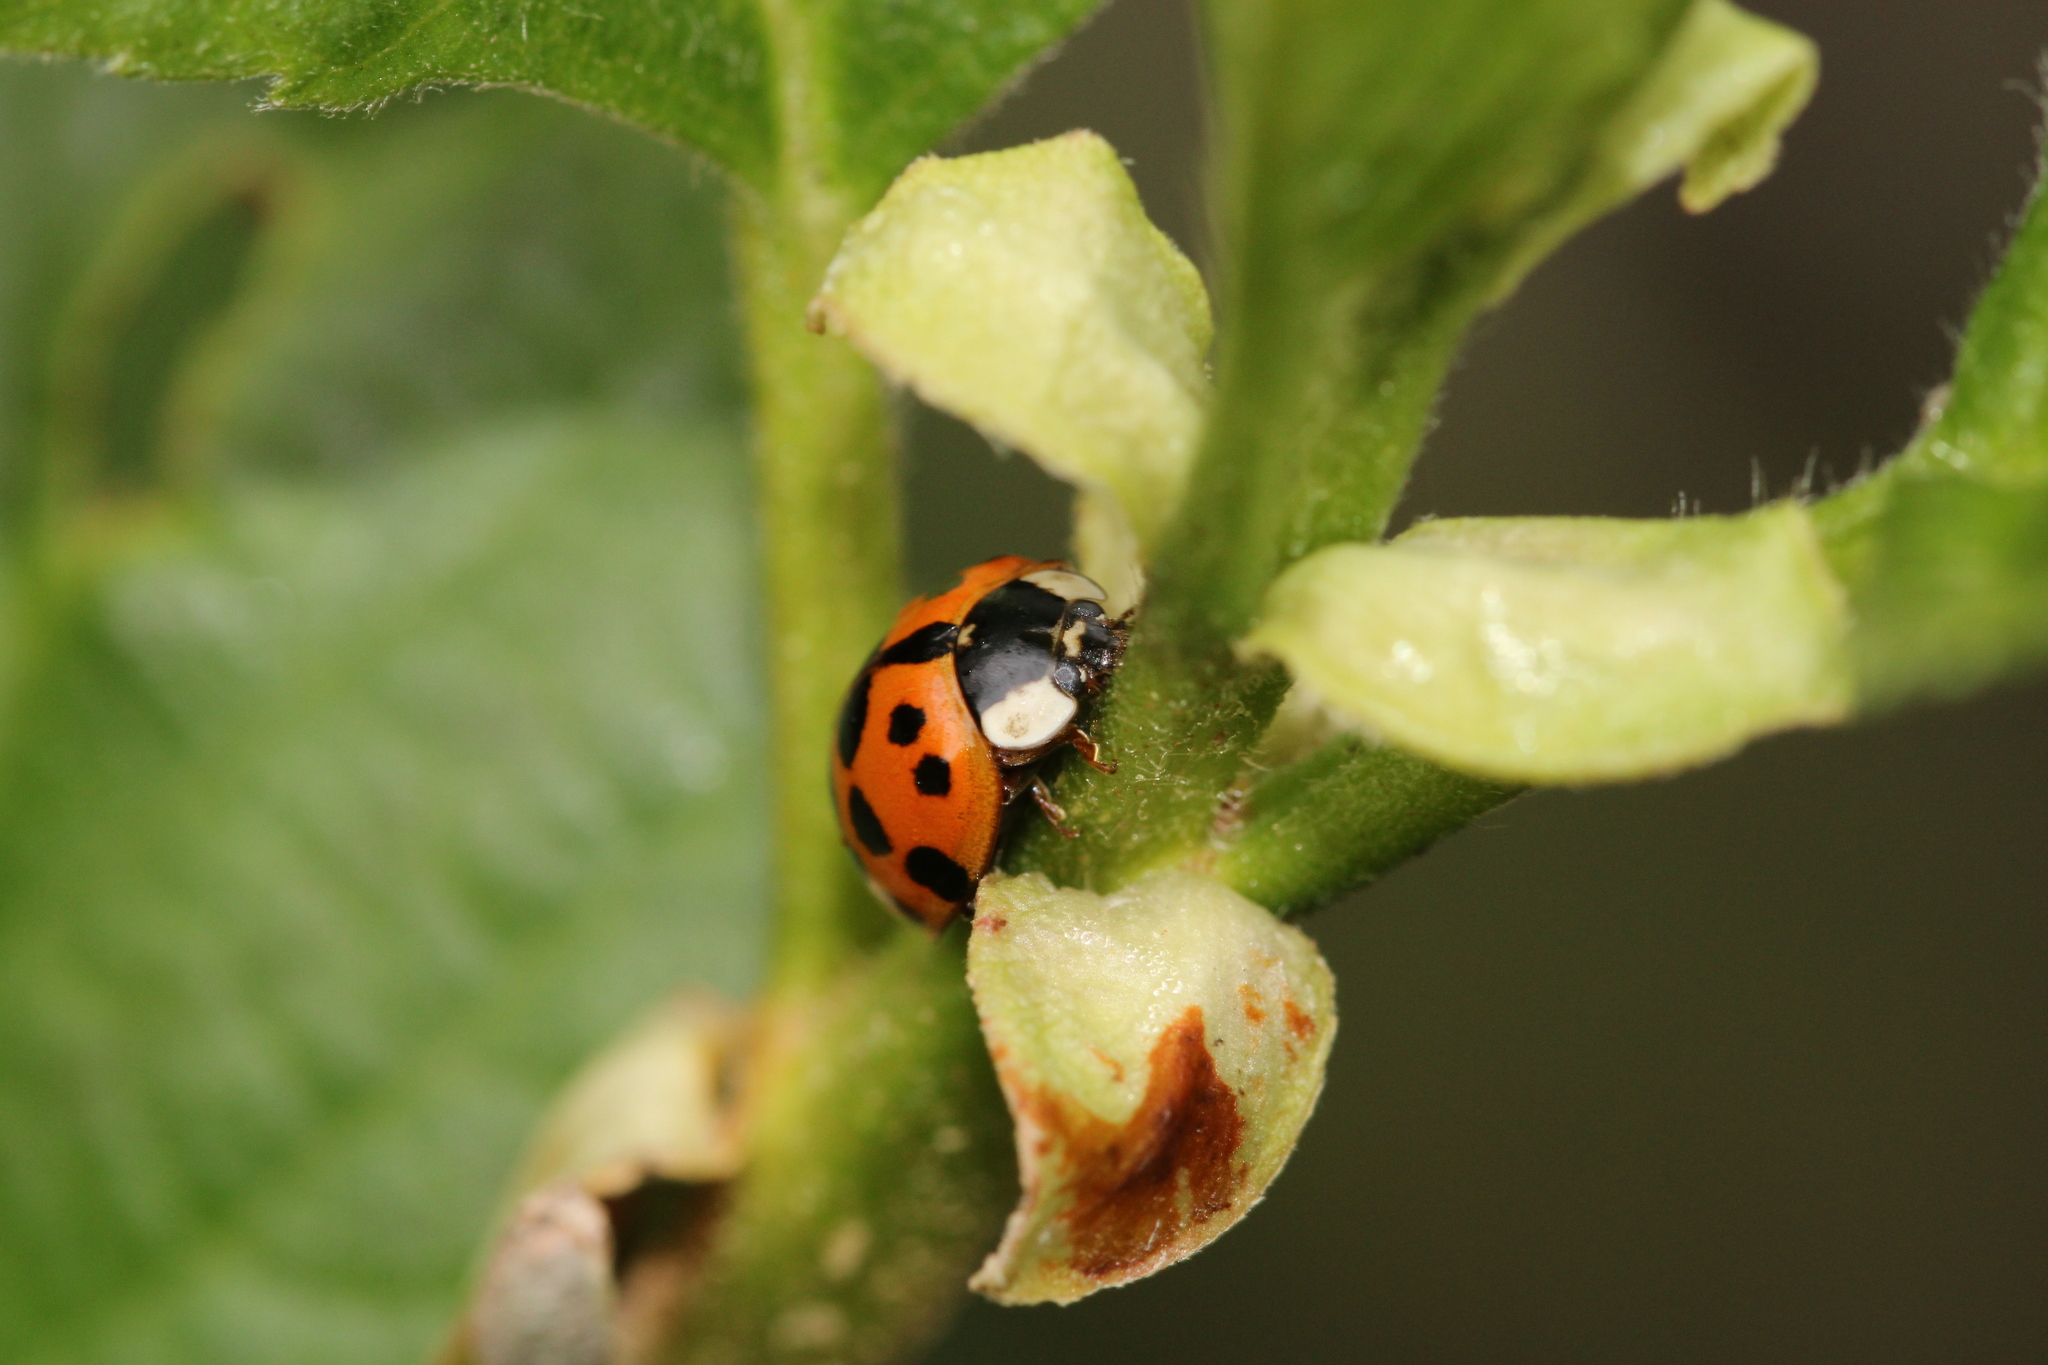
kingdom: Animalia
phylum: Arthropoda
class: Insecta
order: Coleoptera
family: Coccinellidae
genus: Harmonia
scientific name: Harmonia axyridis
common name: Harlequin ladybird
